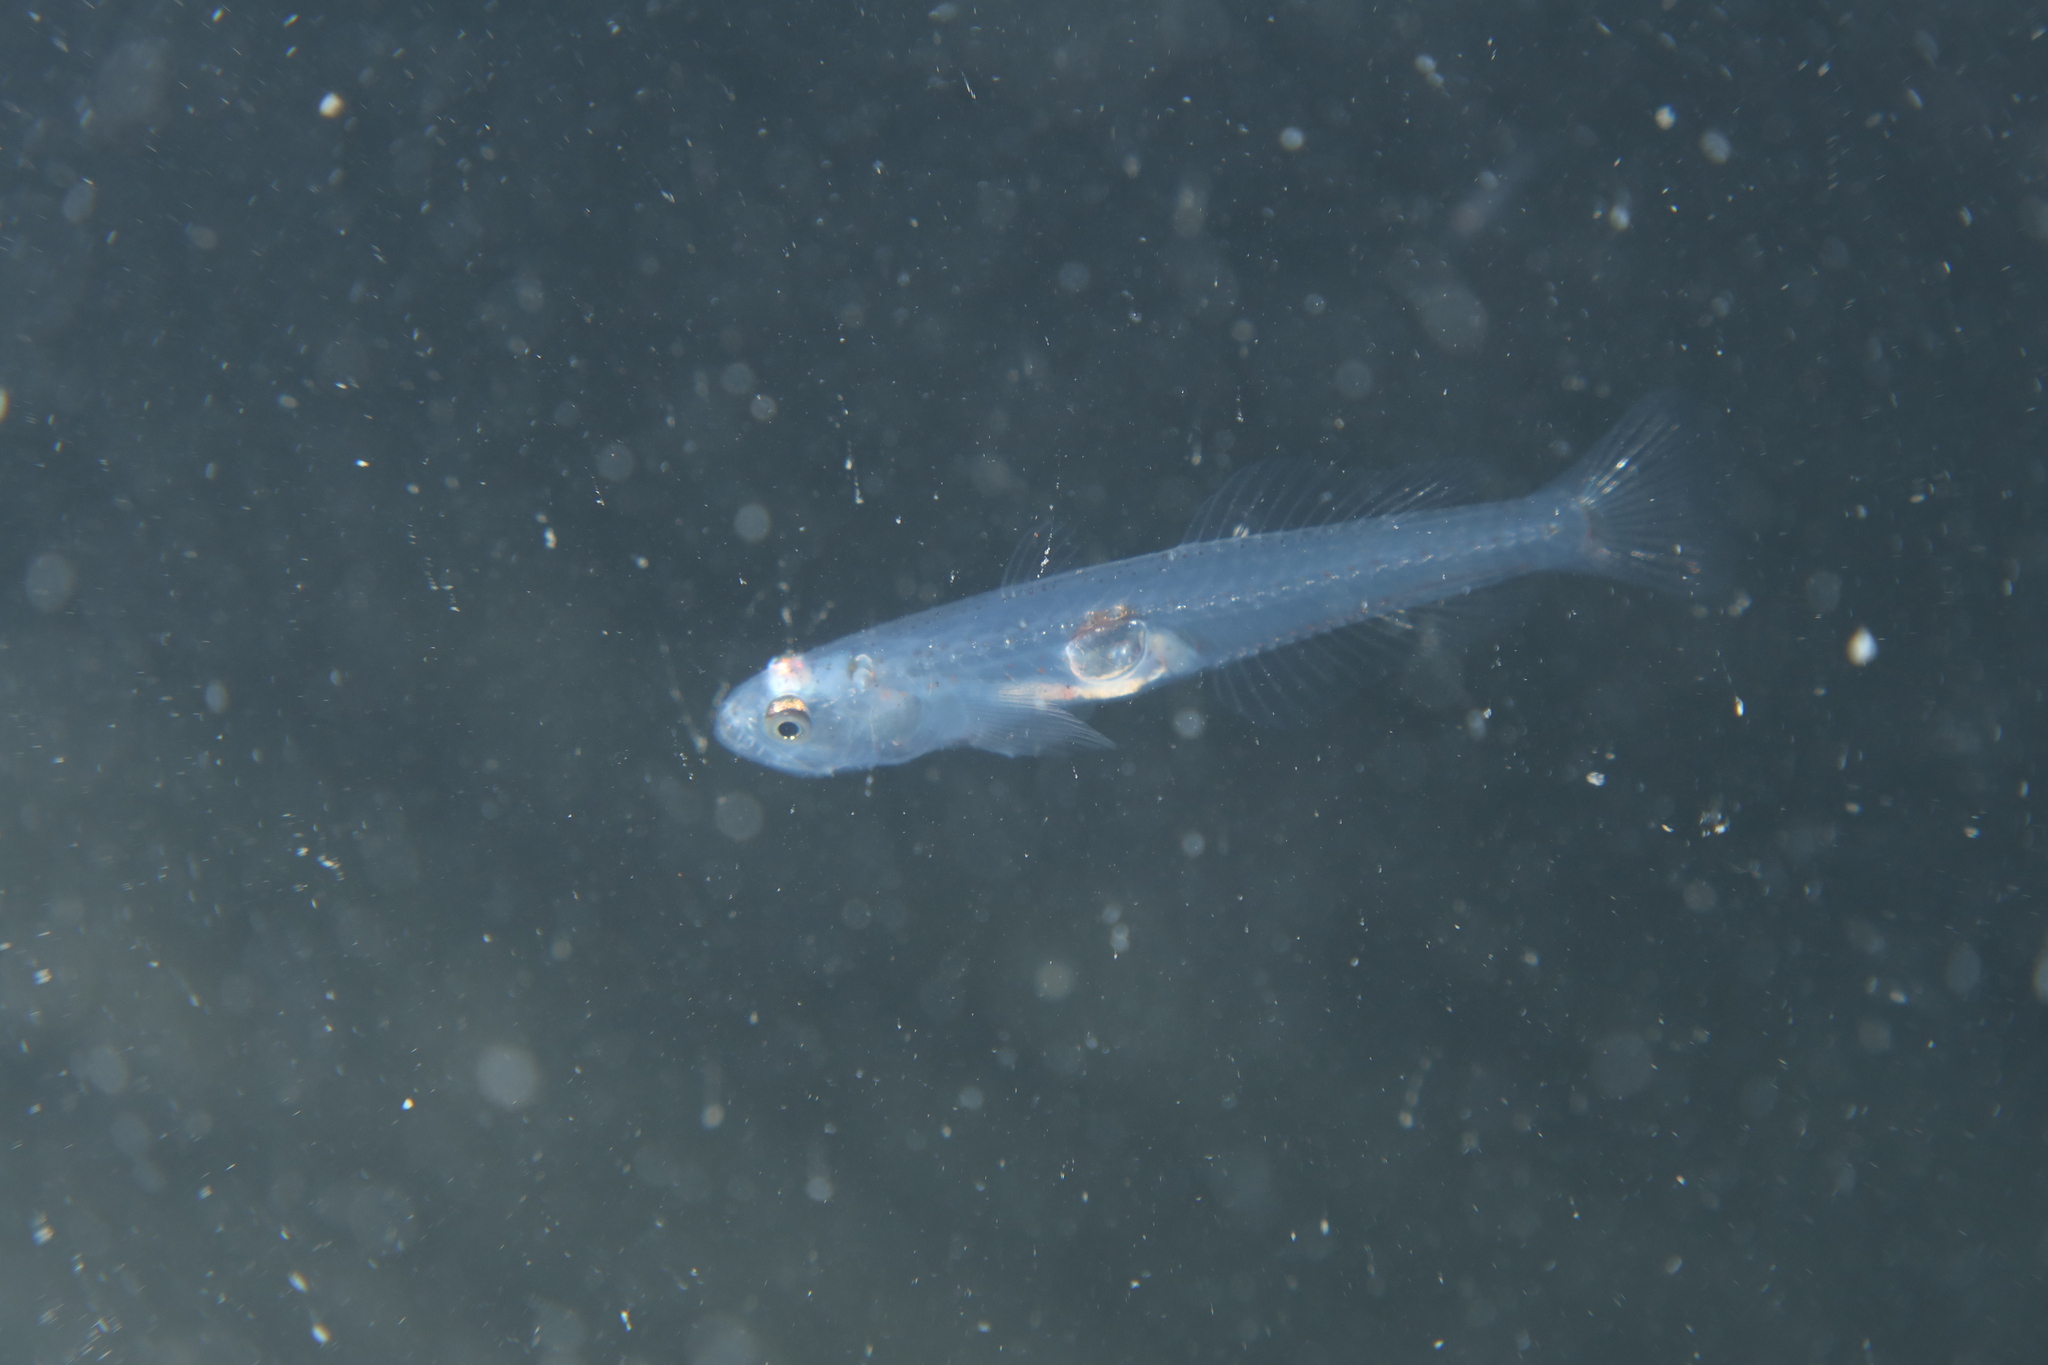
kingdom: Animalia
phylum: Chordata
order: Perciformes
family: Gobiidae
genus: Aphia
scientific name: Aphia minuta
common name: Transparent goby
